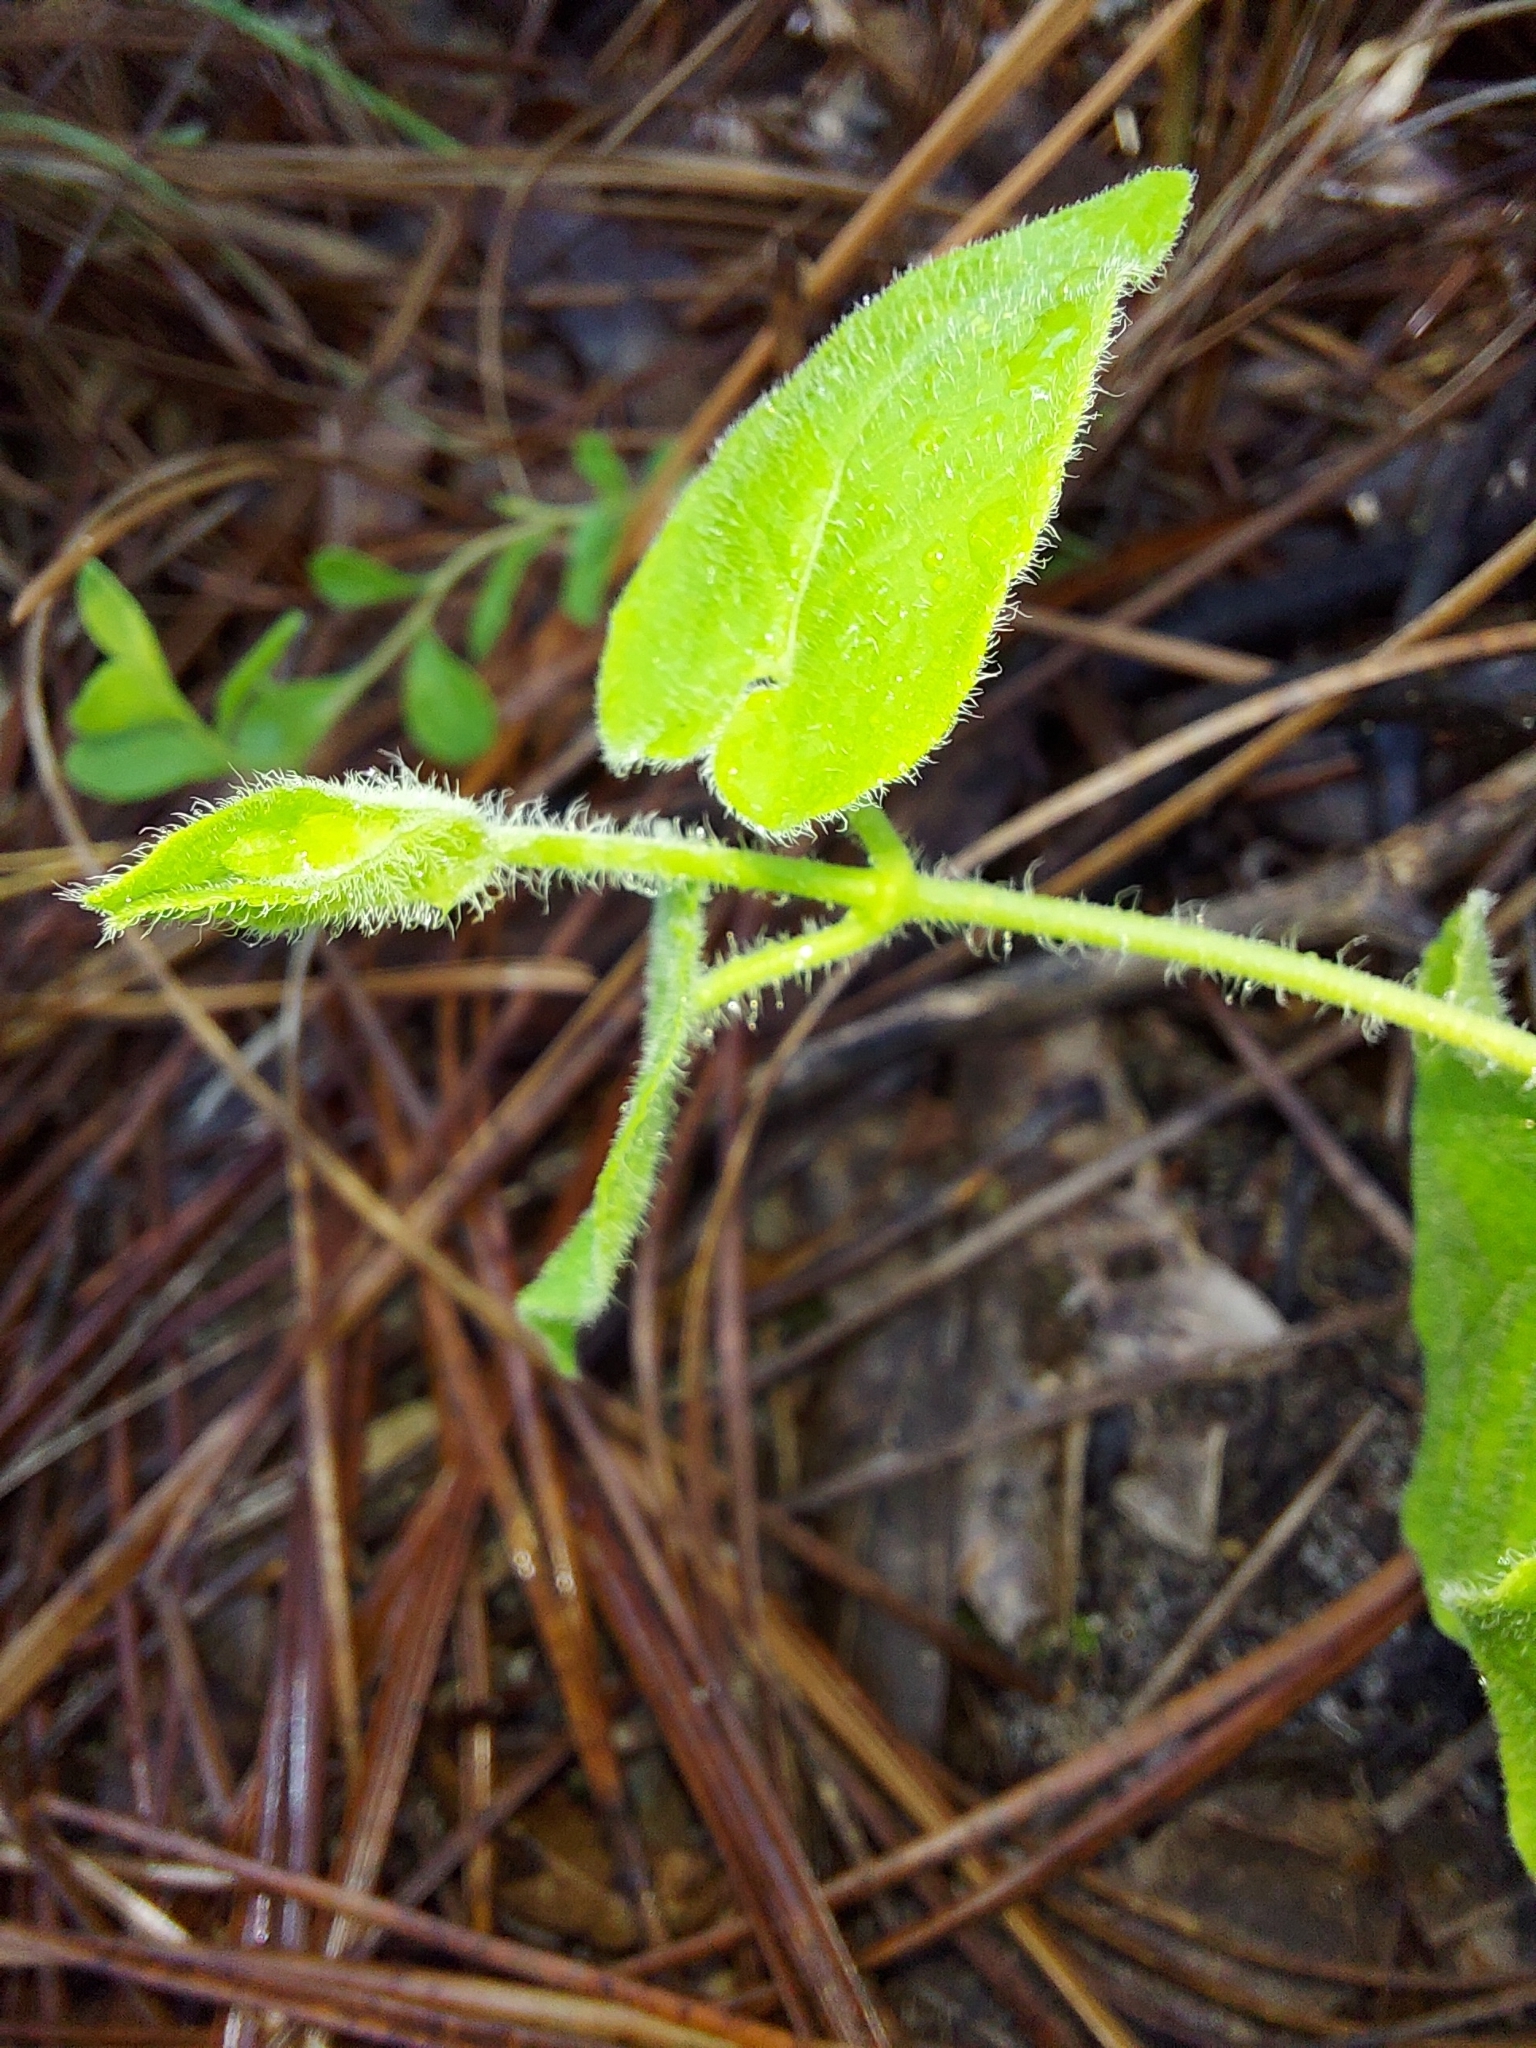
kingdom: Plantae
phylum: Tracheophyta
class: Magnoliopsida
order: Gentianales
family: Apocynaceae
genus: Chthamalia
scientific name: Chthamalia pubiflora
